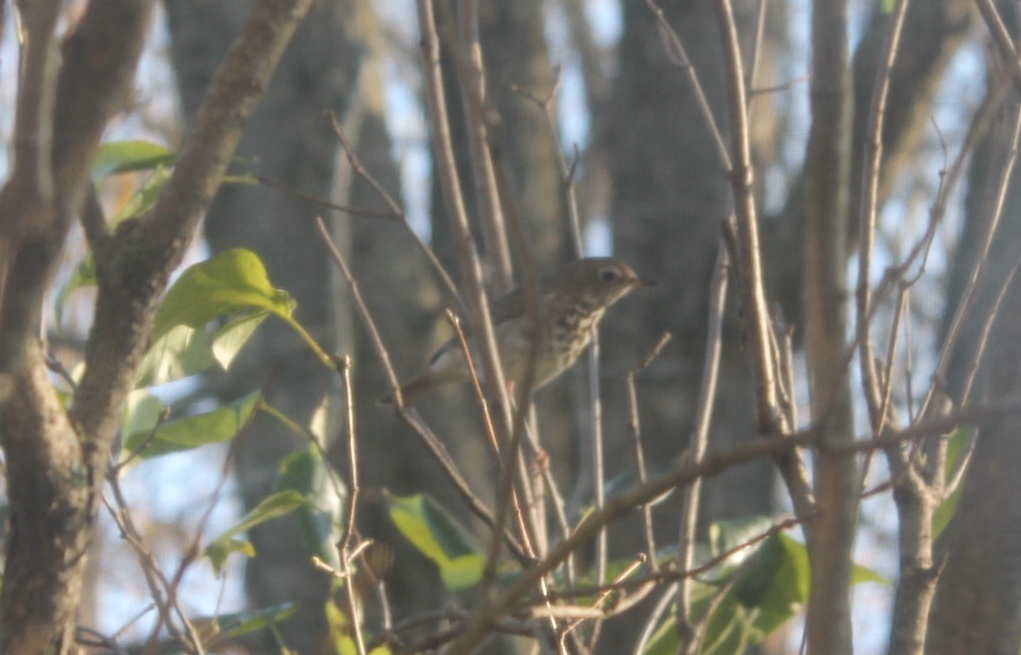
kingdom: Animalia
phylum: Chordata
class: Aves
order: Passeriformes
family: Turdidae
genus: Catharus
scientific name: Catharus guttatus
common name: Hermit thrush
